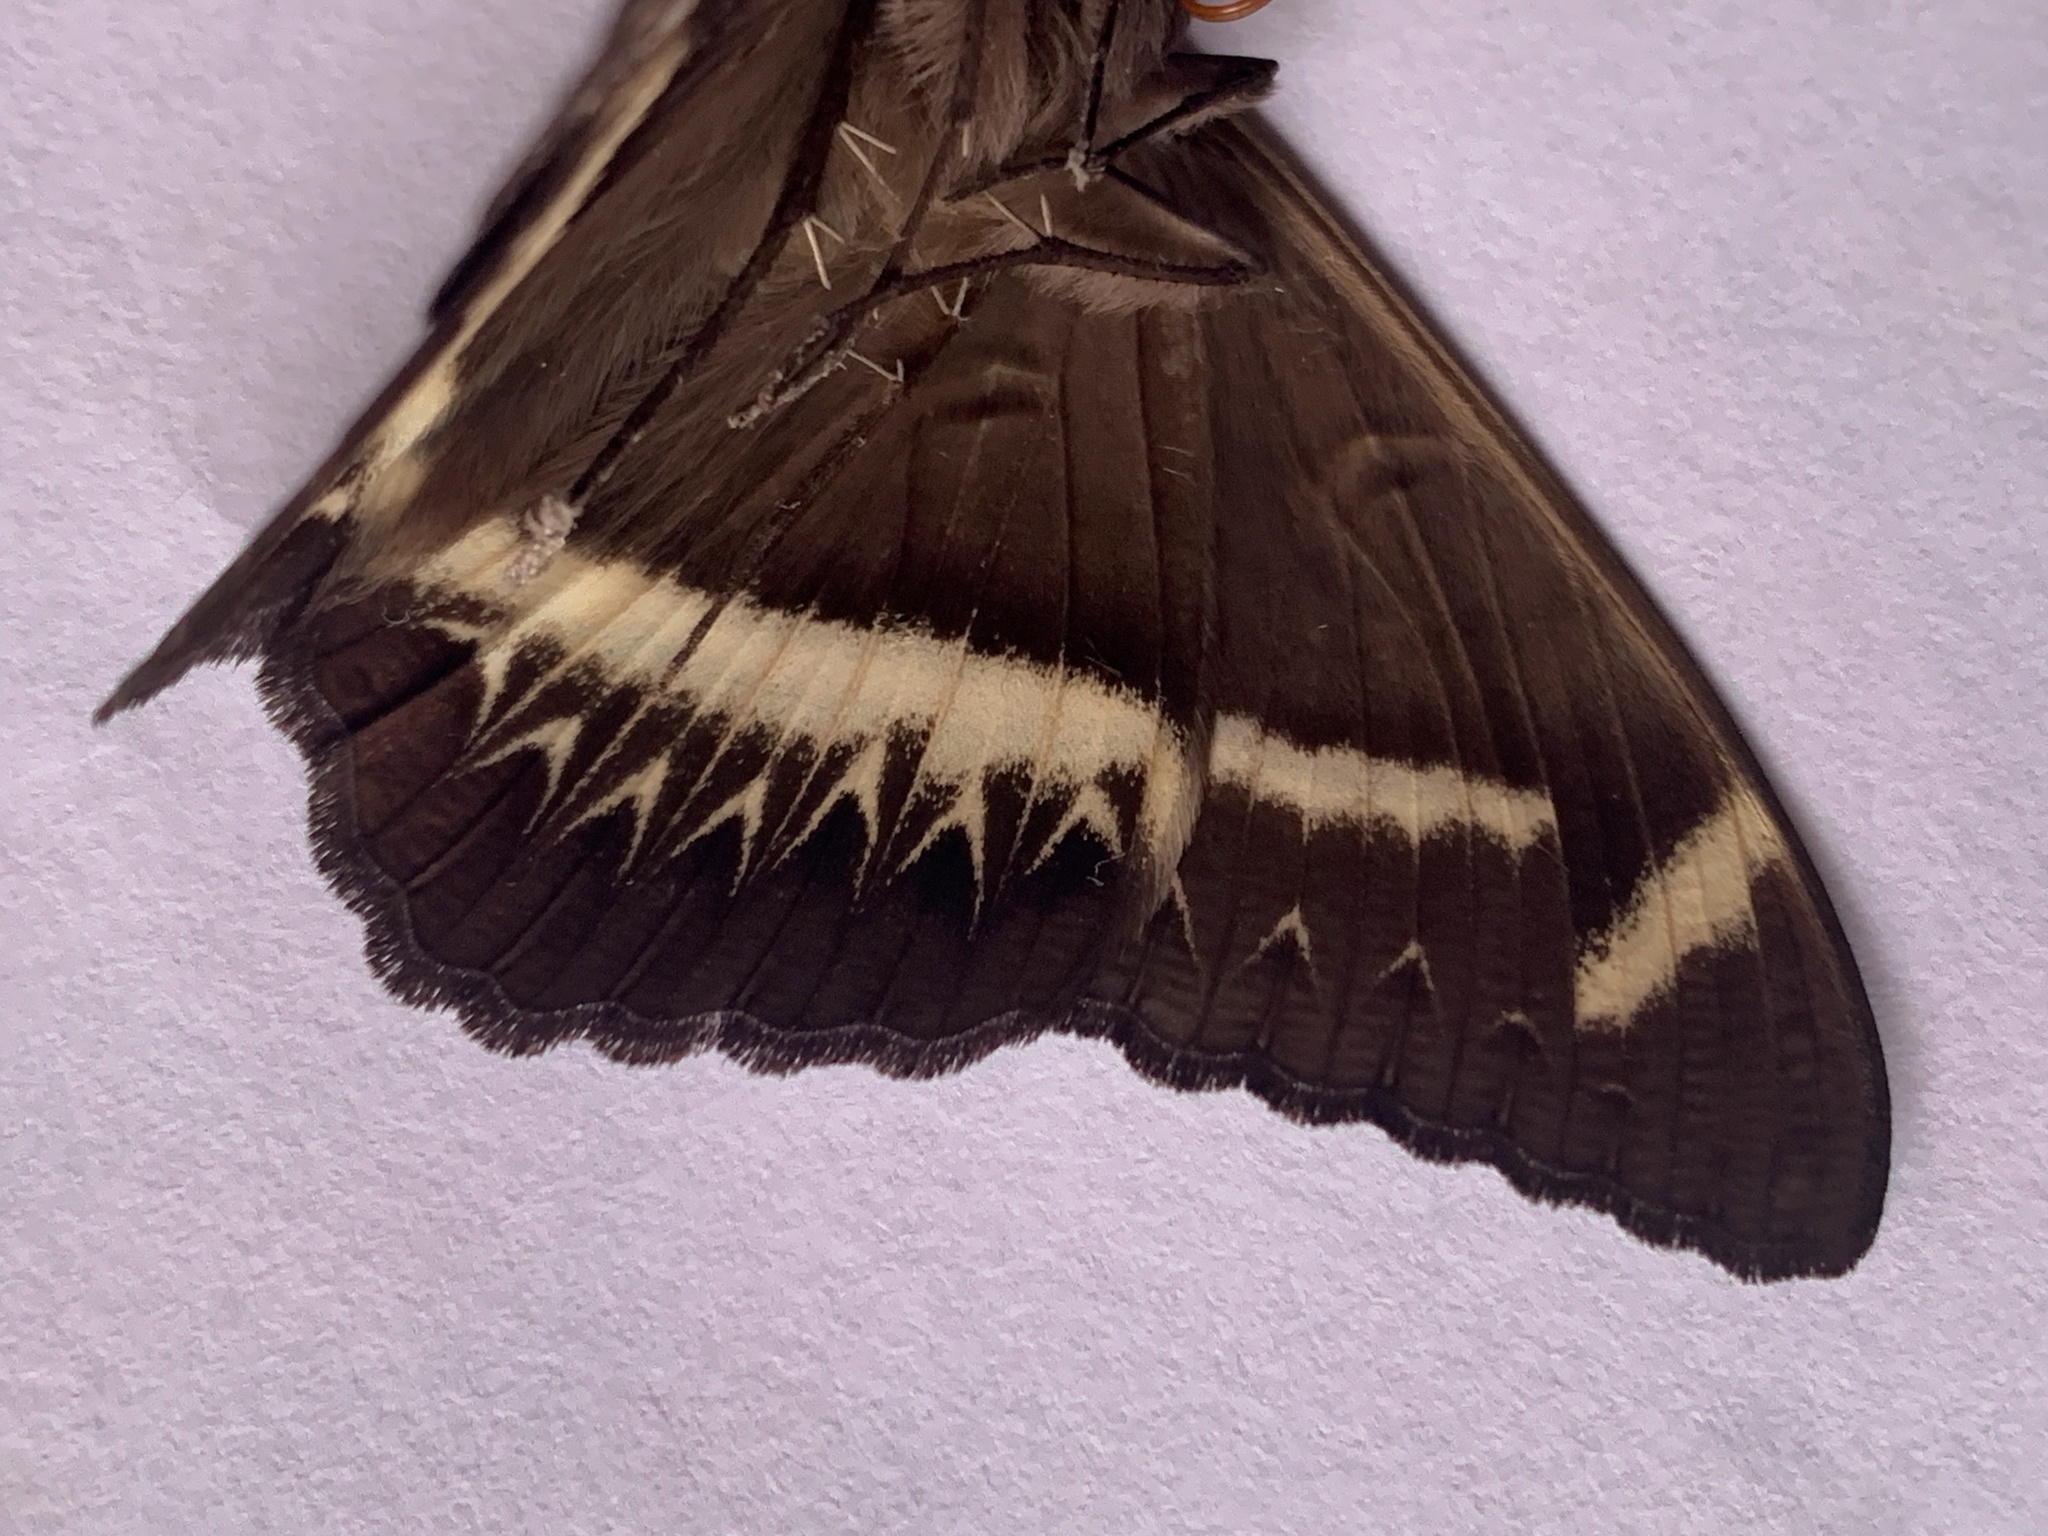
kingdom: Animalia
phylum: Arthropoda
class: Insecta
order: Lepidoptera
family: Erebidae
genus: Cyligramma
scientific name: Cyligramma latona
